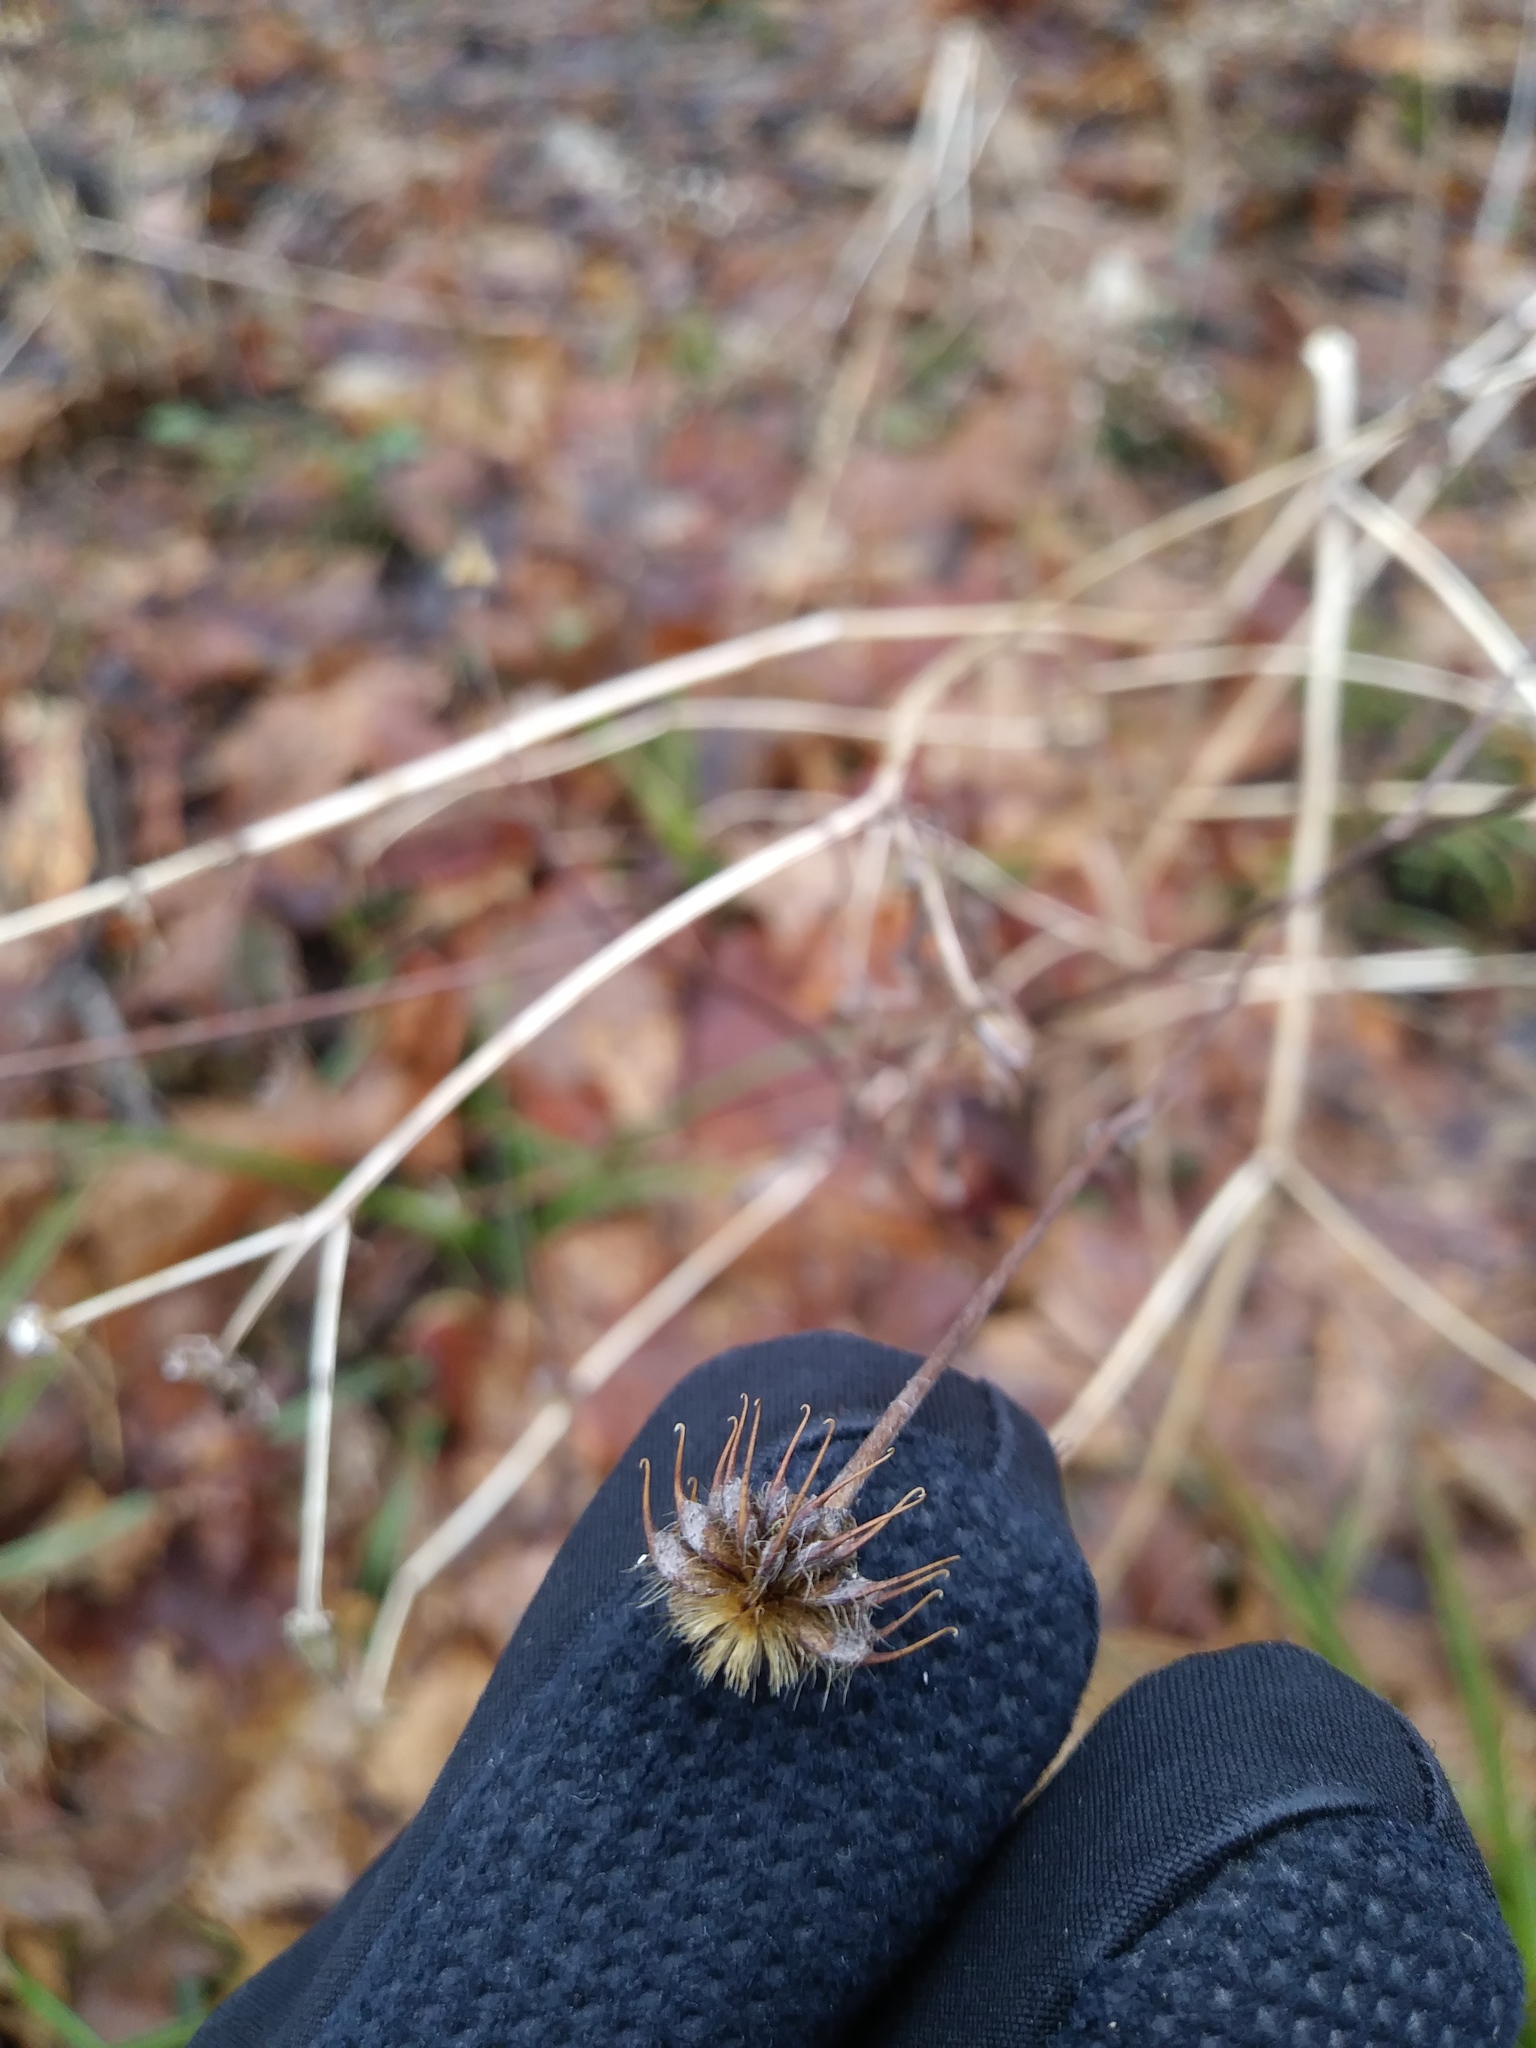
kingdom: Plantae
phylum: Tracheophyta
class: Magnoliopsida
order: Rosales
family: Rosaceae
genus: Geum
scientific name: Geum canadense
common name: White avens
